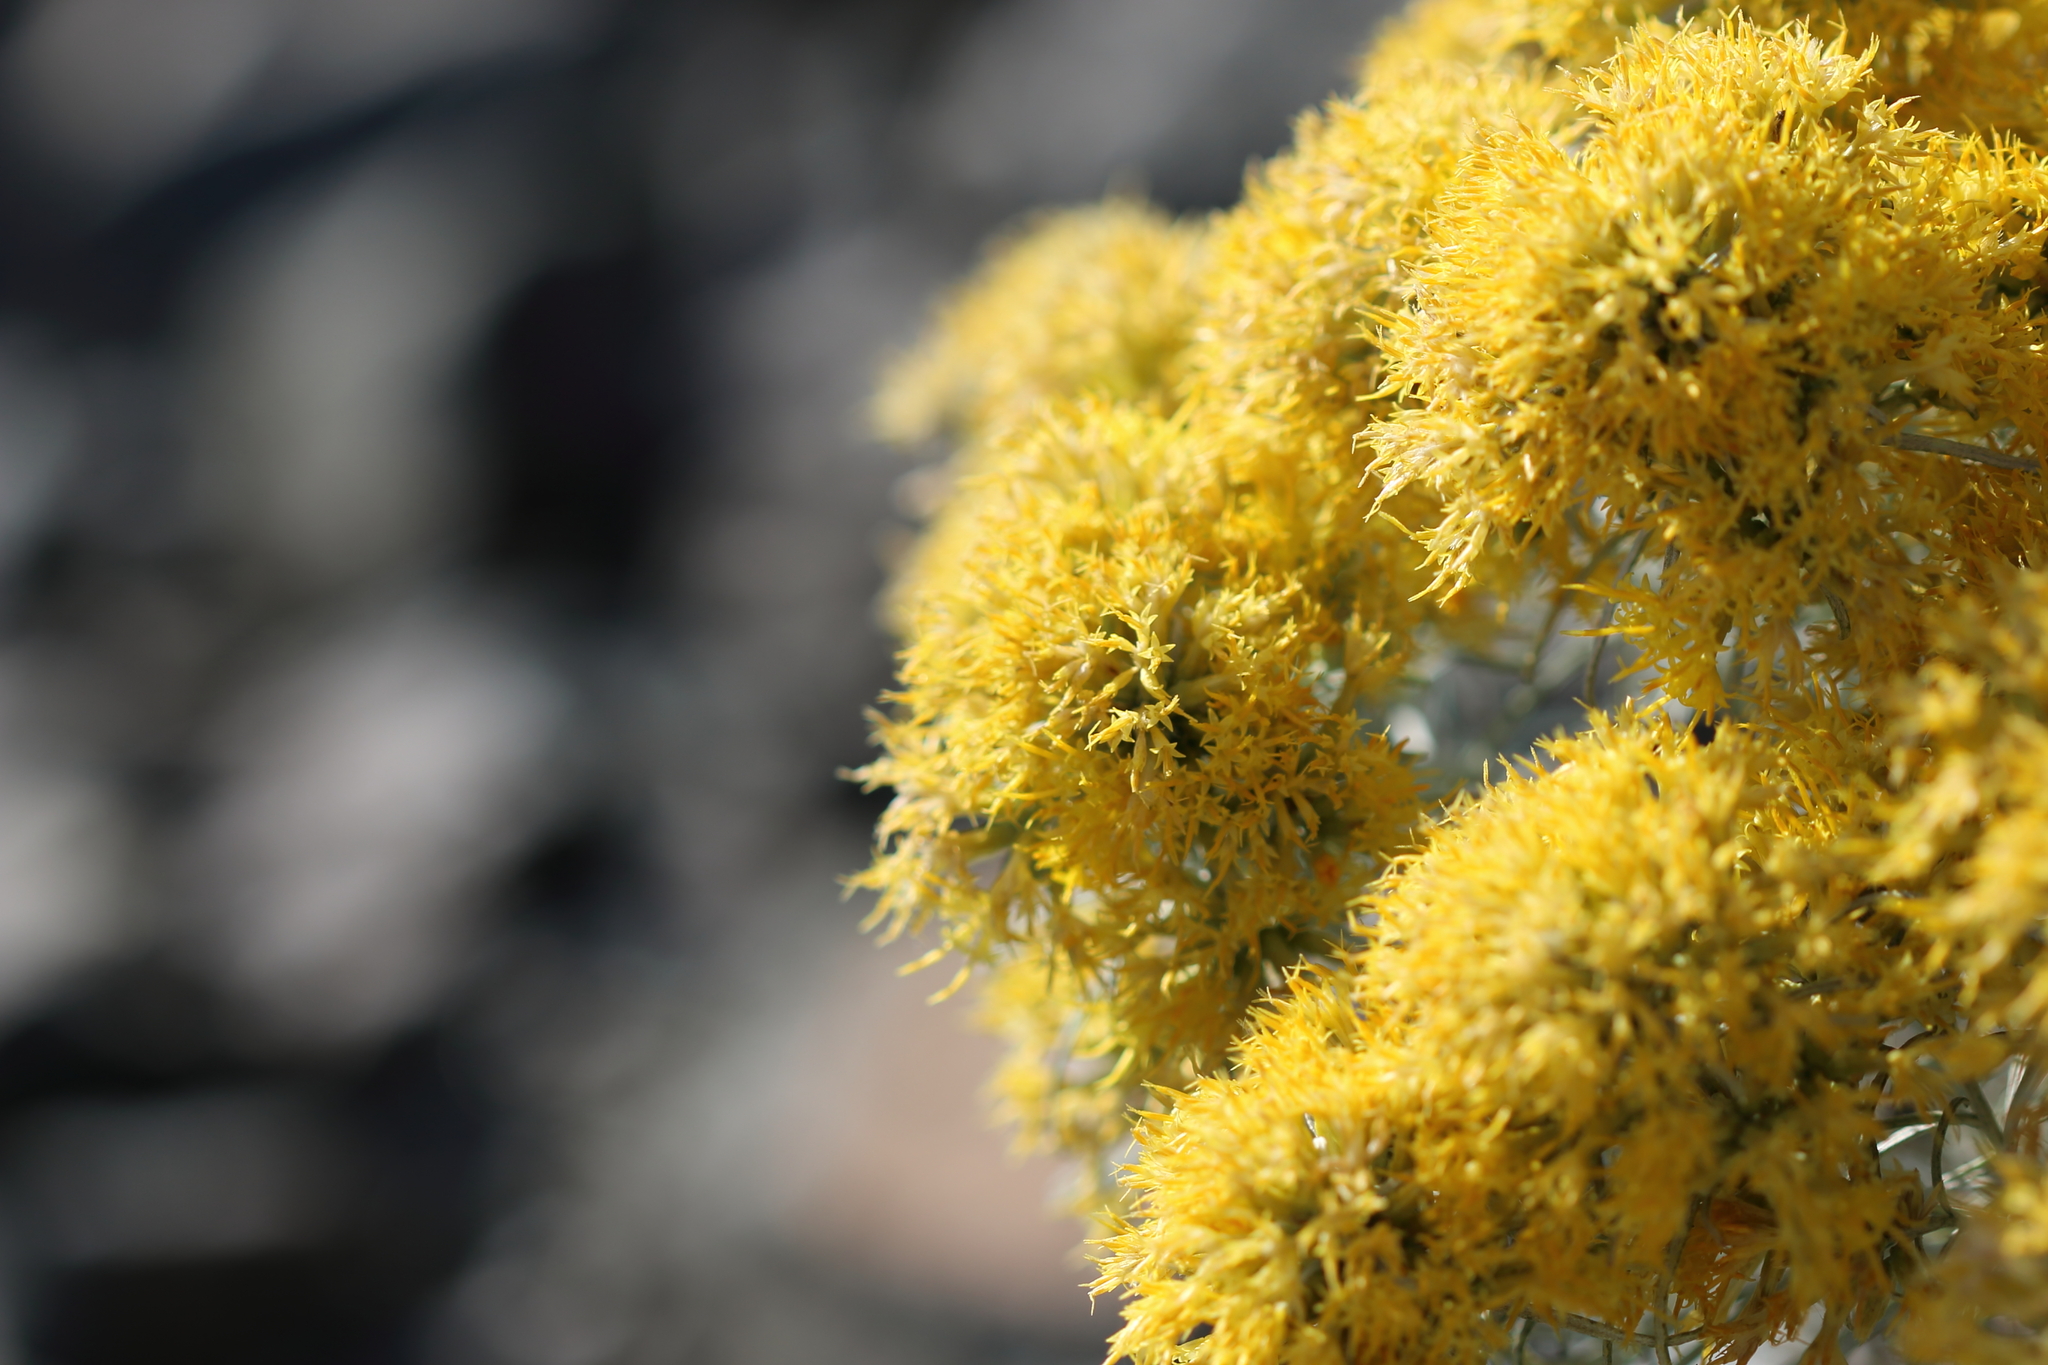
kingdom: Plantae
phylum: Tracheophyta
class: Magnoliopsida
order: Asterales
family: Asteraceae
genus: Ericameria
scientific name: Ericameria nauseosa
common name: Rubber rabbitbrush
